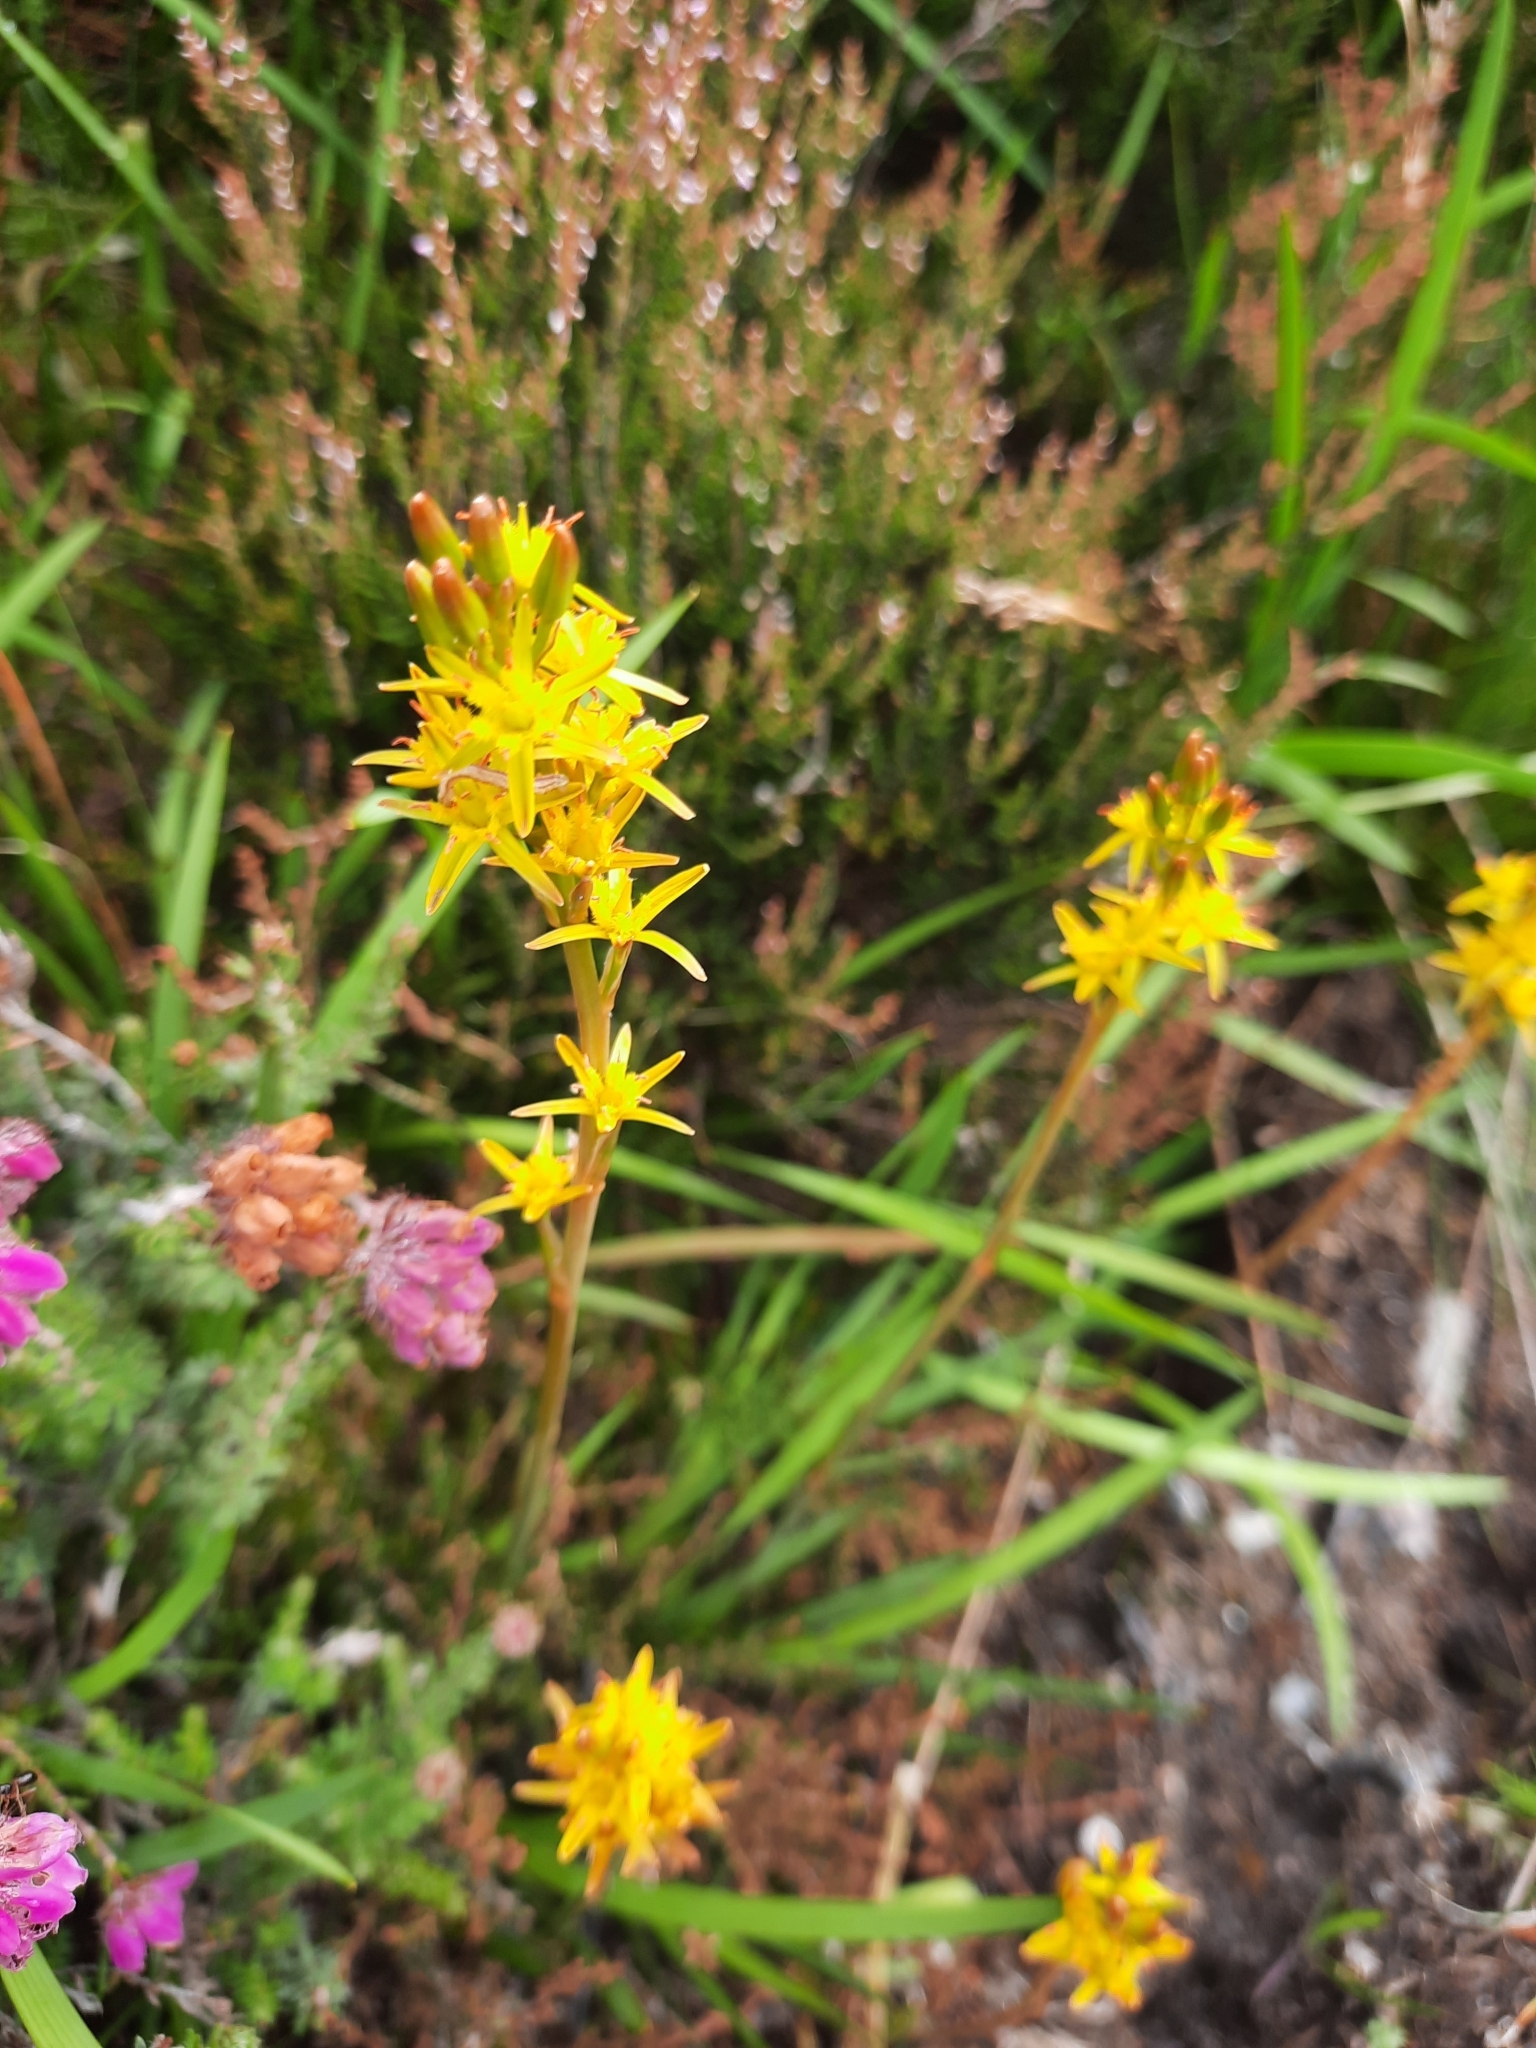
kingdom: Plantae
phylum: Tracheophyta
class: Liliopsida
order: Dioscoreales
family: Nartheciaceae
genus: Narthecium
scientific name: Narthecium ossifragum
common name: Bog asphodel
